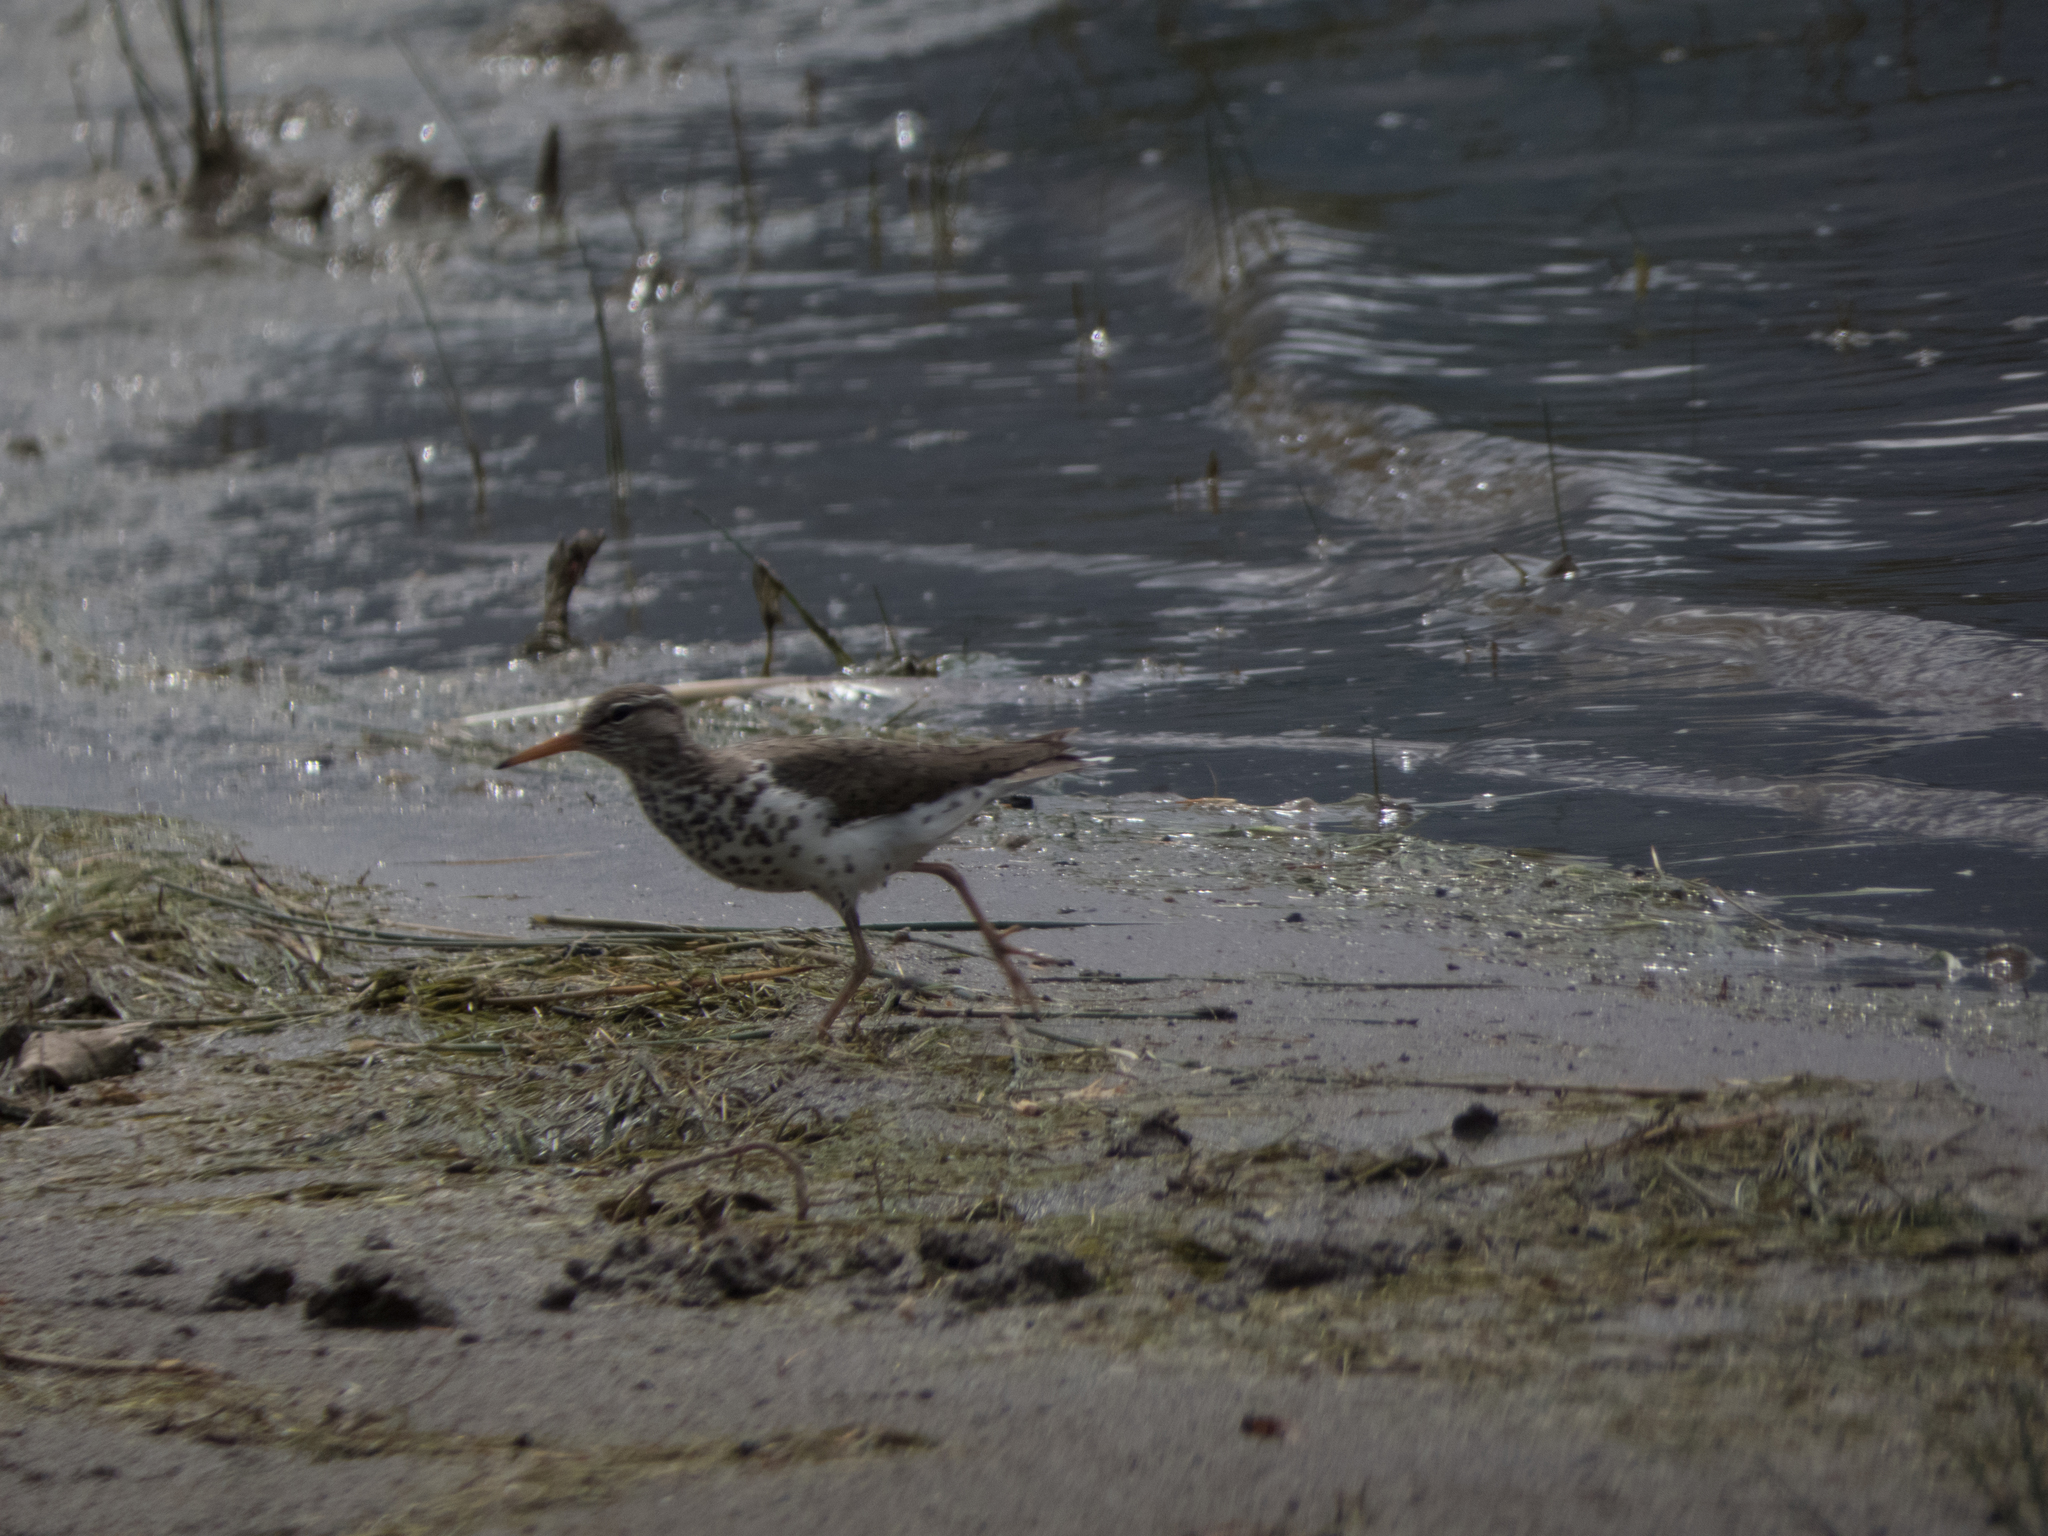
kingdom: Animalia
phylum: Chordata
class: Aves
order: Charadriiformes
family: Scolopacidae
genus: Actitis
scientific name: Actitis macularius
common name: Spotted sandpiper
